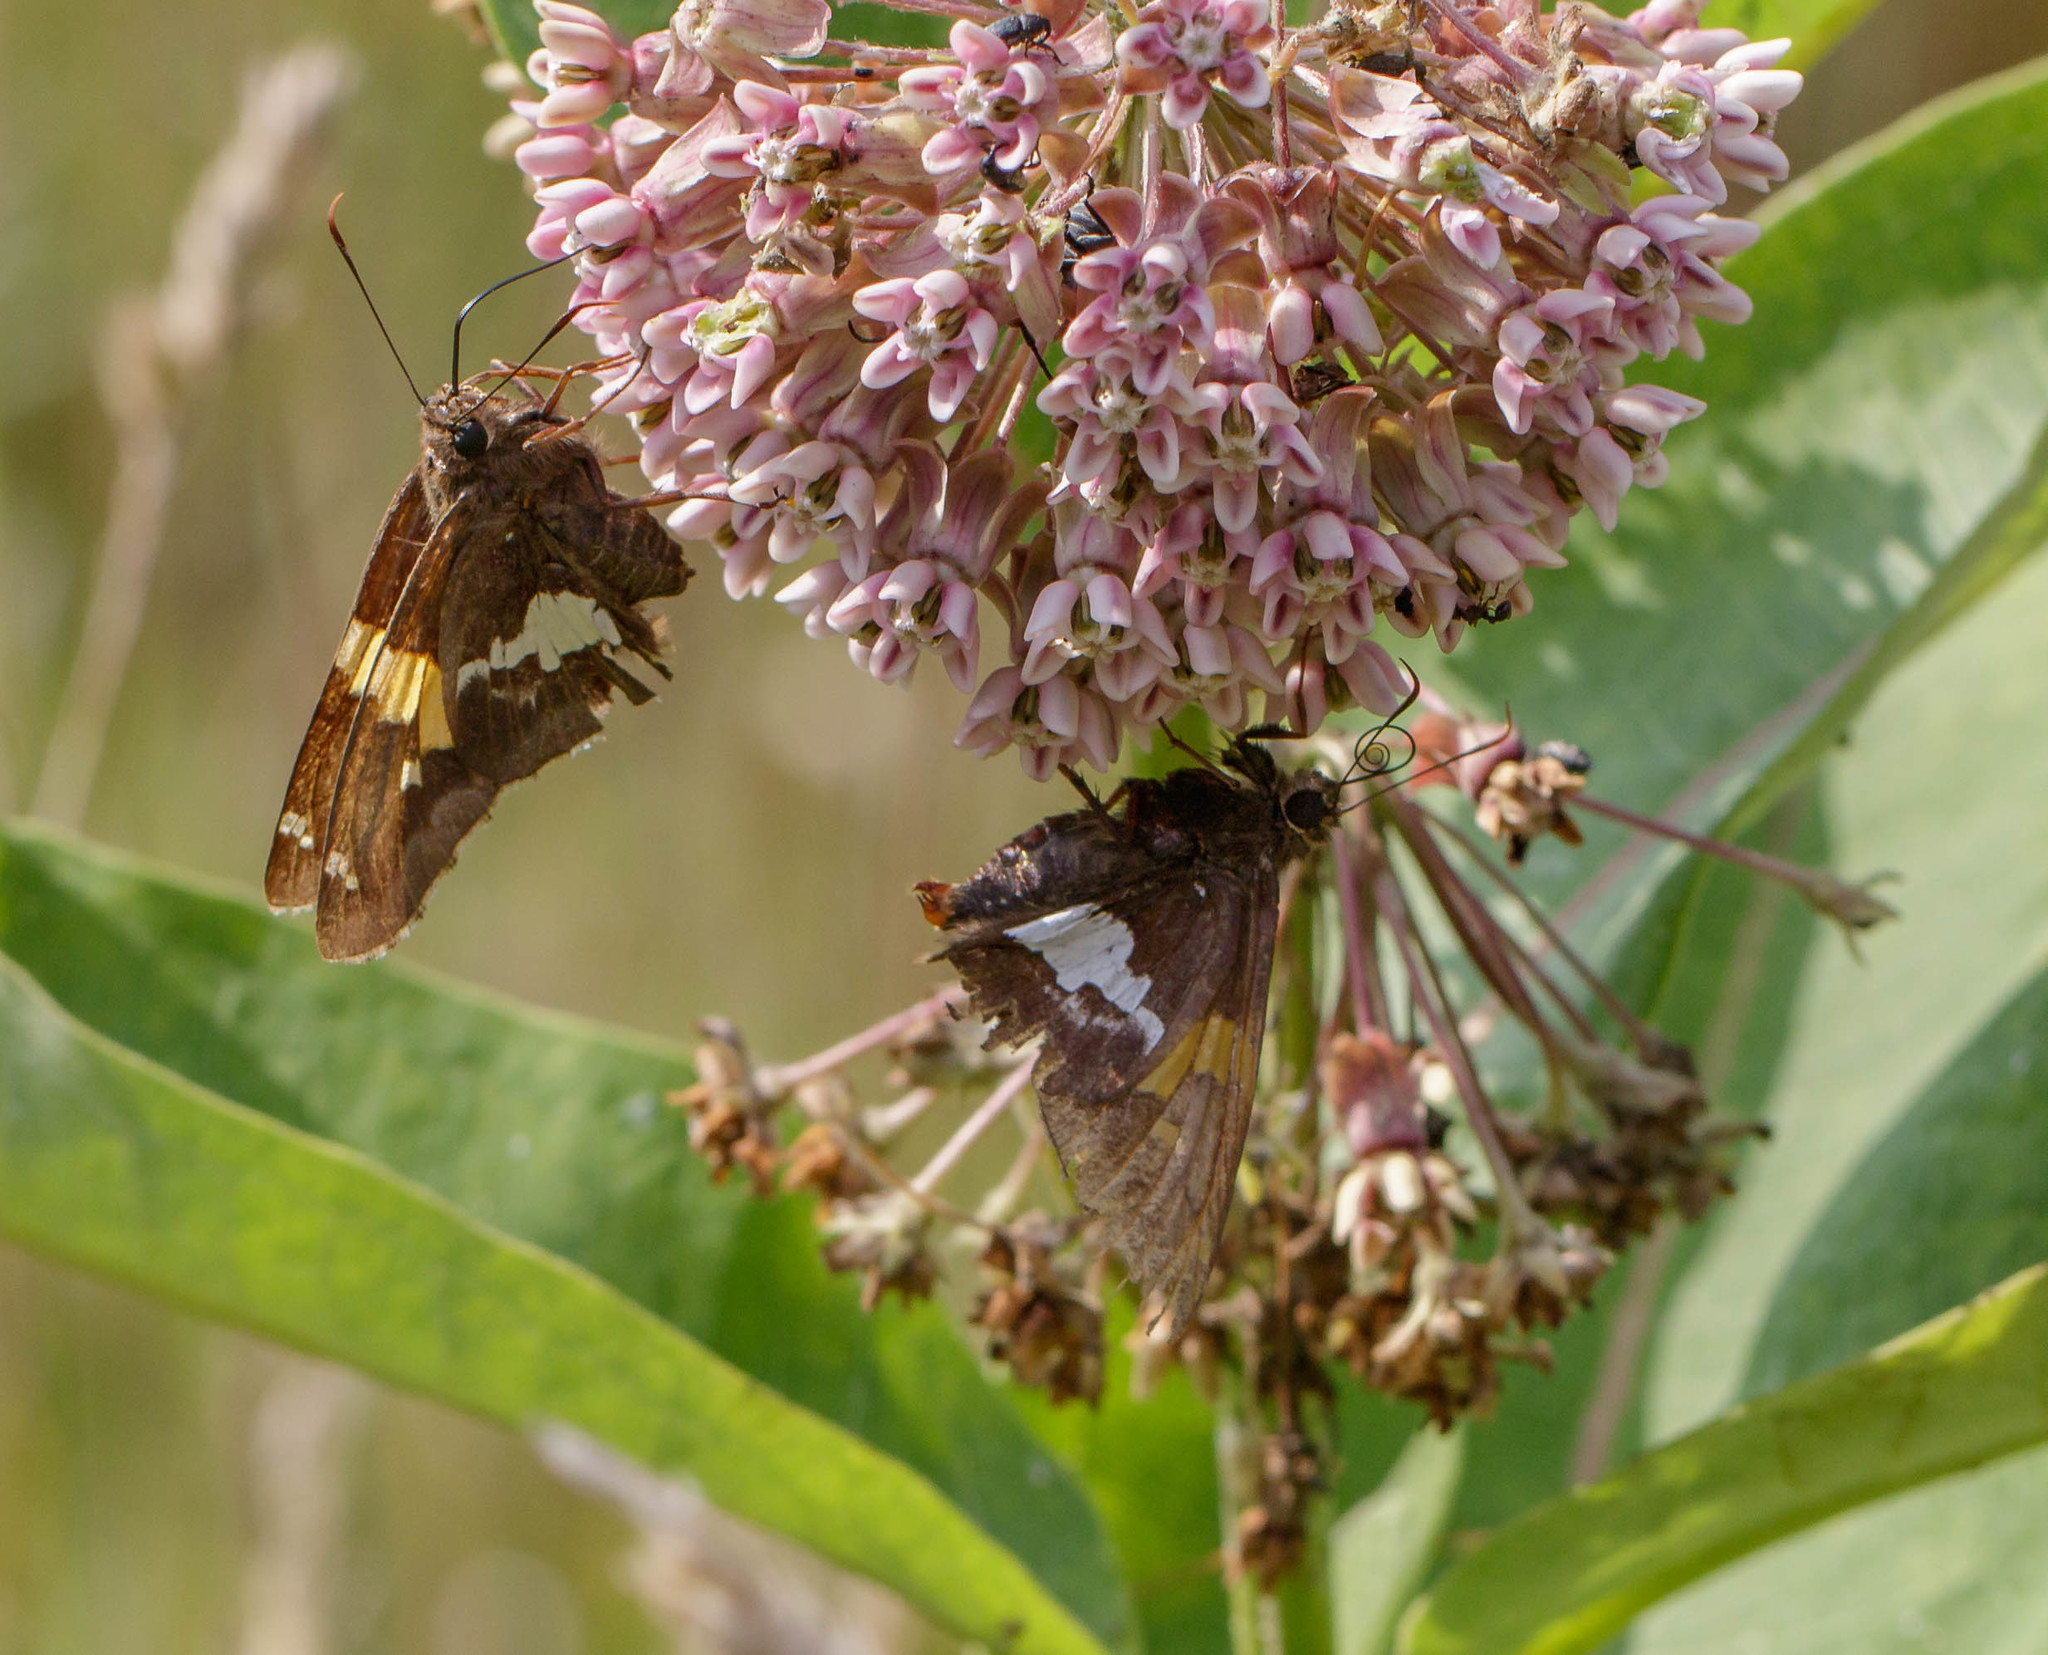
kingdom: Animalia
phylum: Arthropoda
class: Insecta
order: Lepidoptera
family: Hesperiidae
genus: Epargyreus
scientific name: Epargyreus clarus
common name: Silver-spotted skipper
